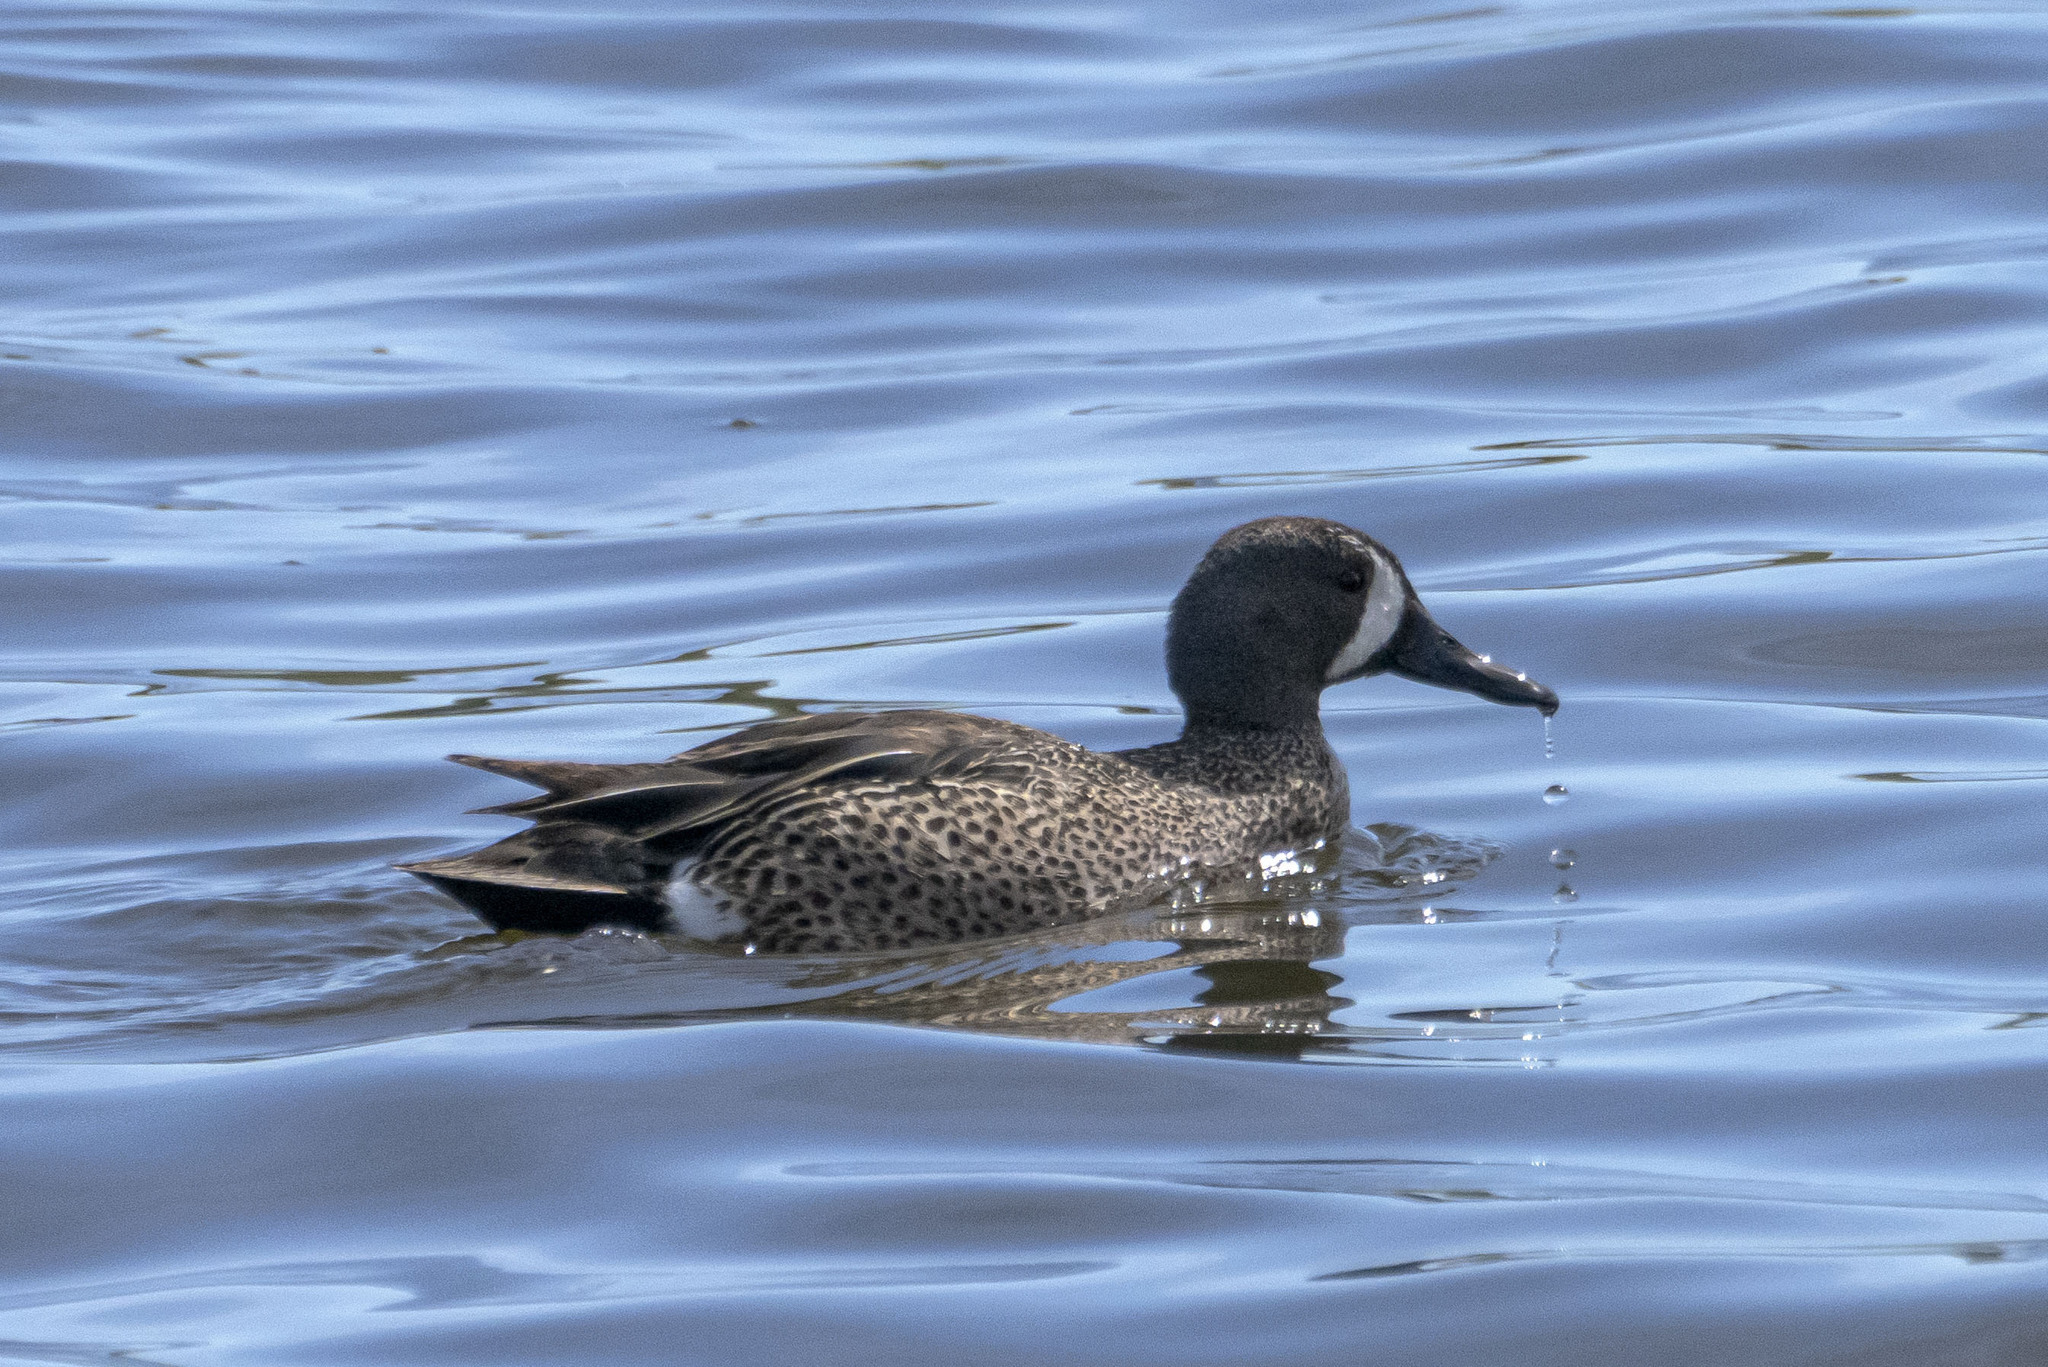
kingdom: Animalia
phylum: Chordata
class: Aves
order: Anseriformes
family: Anatidae
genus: Spatula
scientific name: Spatula discors
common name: Blue-winged teal
